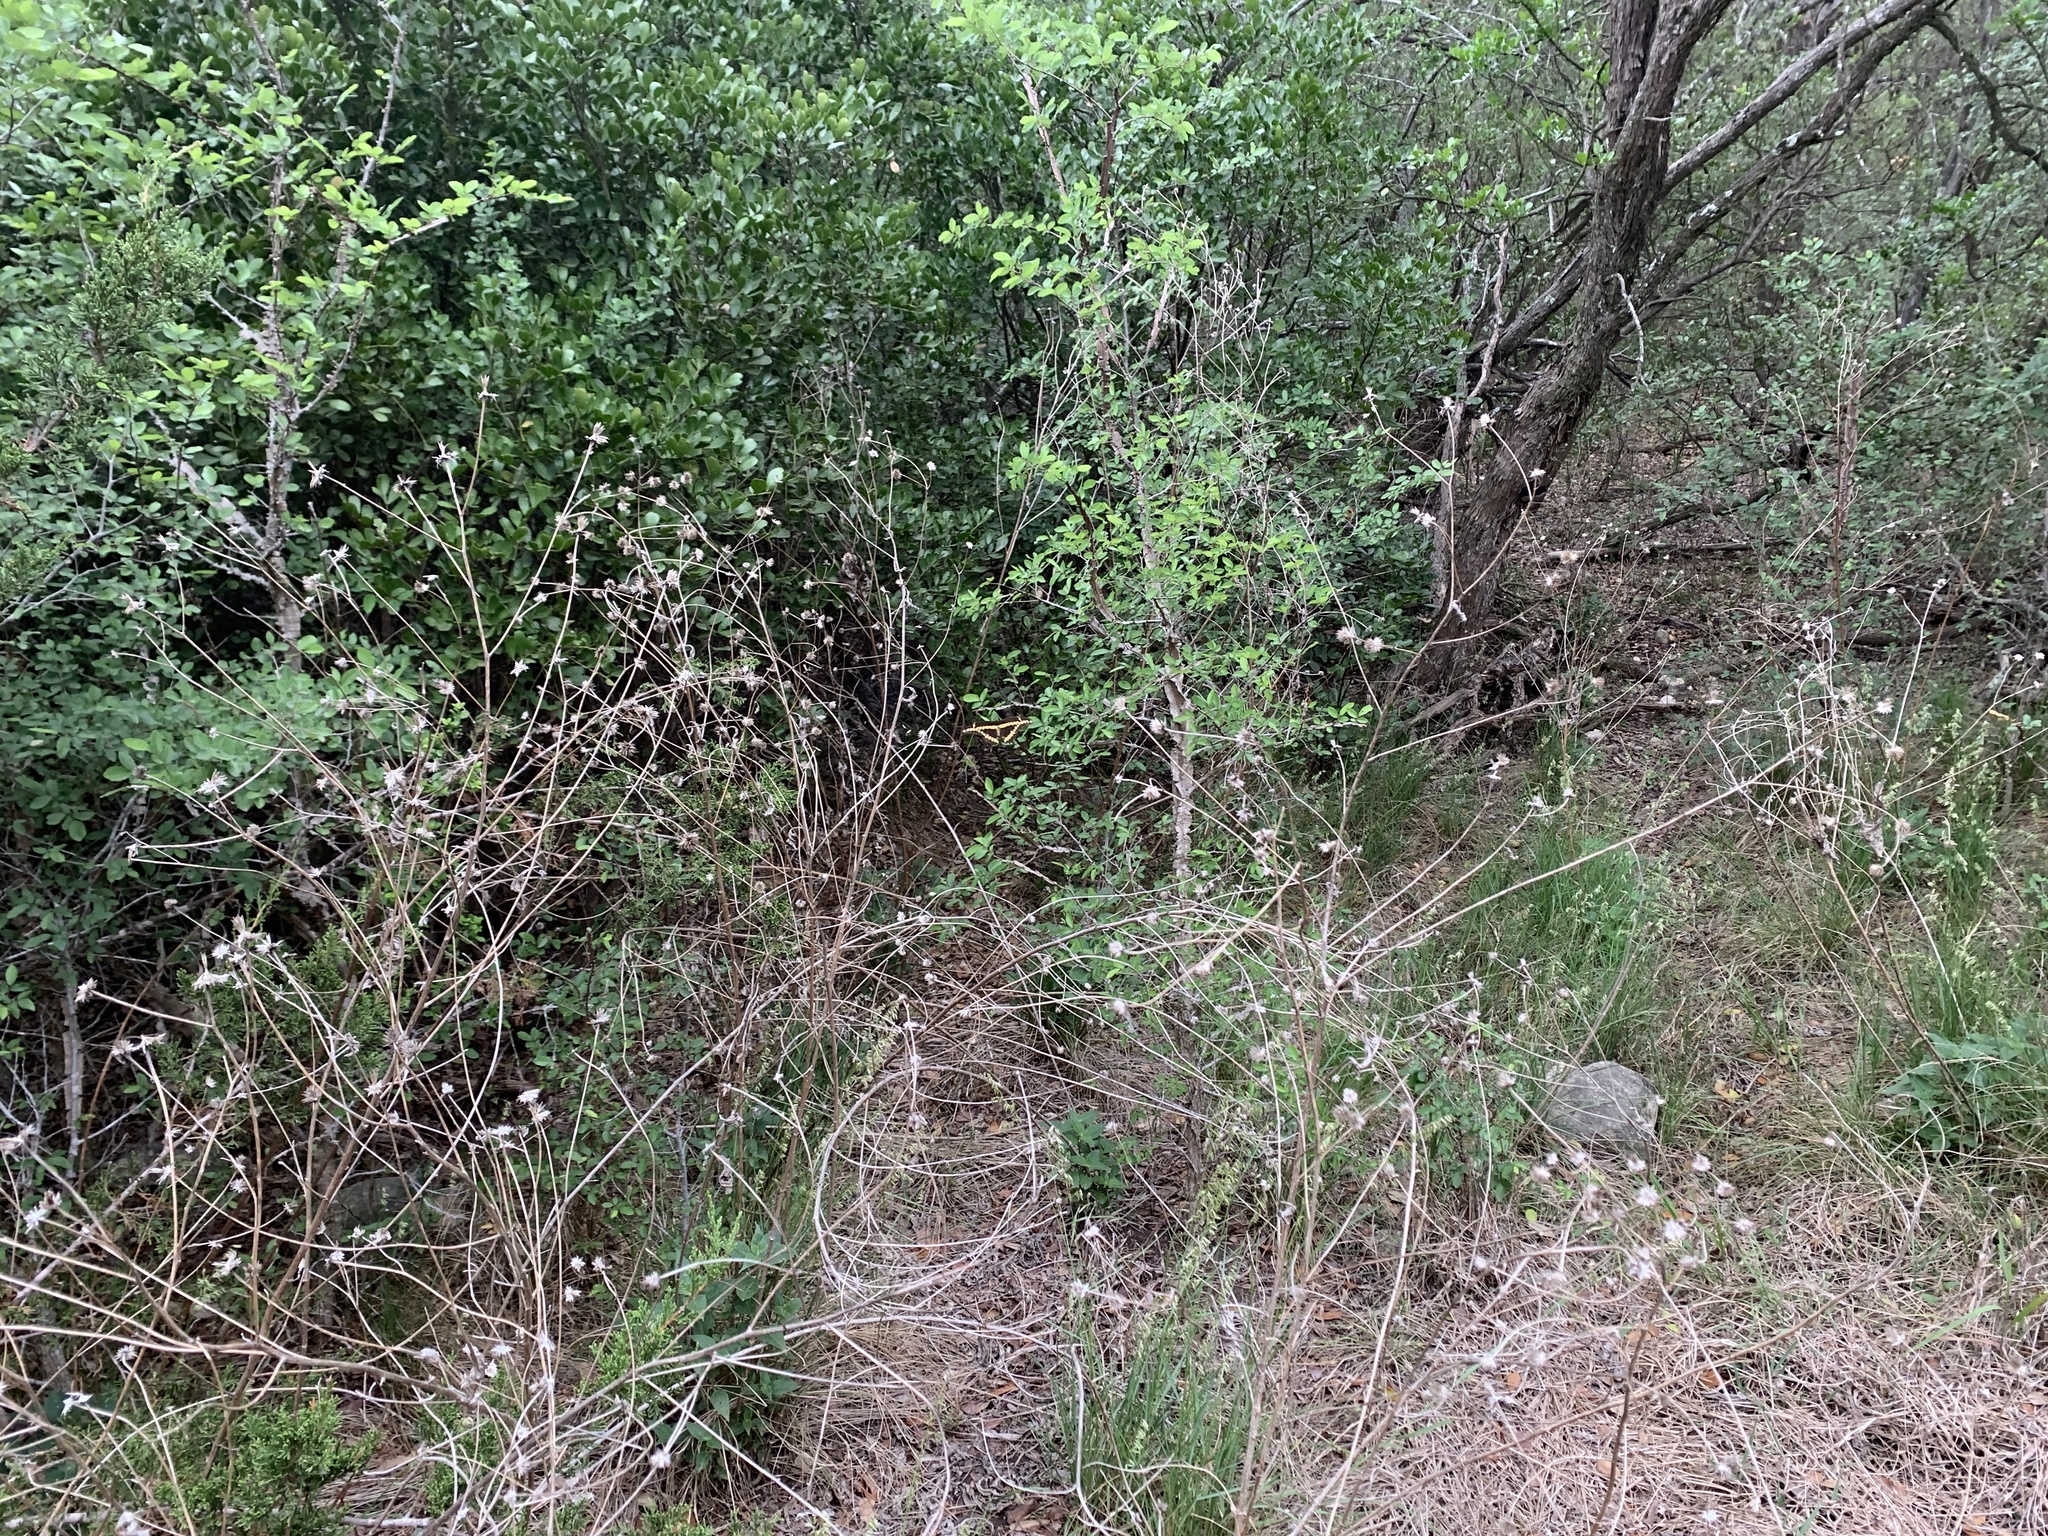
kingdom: Animalia
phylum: Arthropoda
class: Insecta
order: Lepidoptera
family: Papilionidae
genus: Papilio
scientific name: Papilio rumiko
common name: Western giant swallowtail
